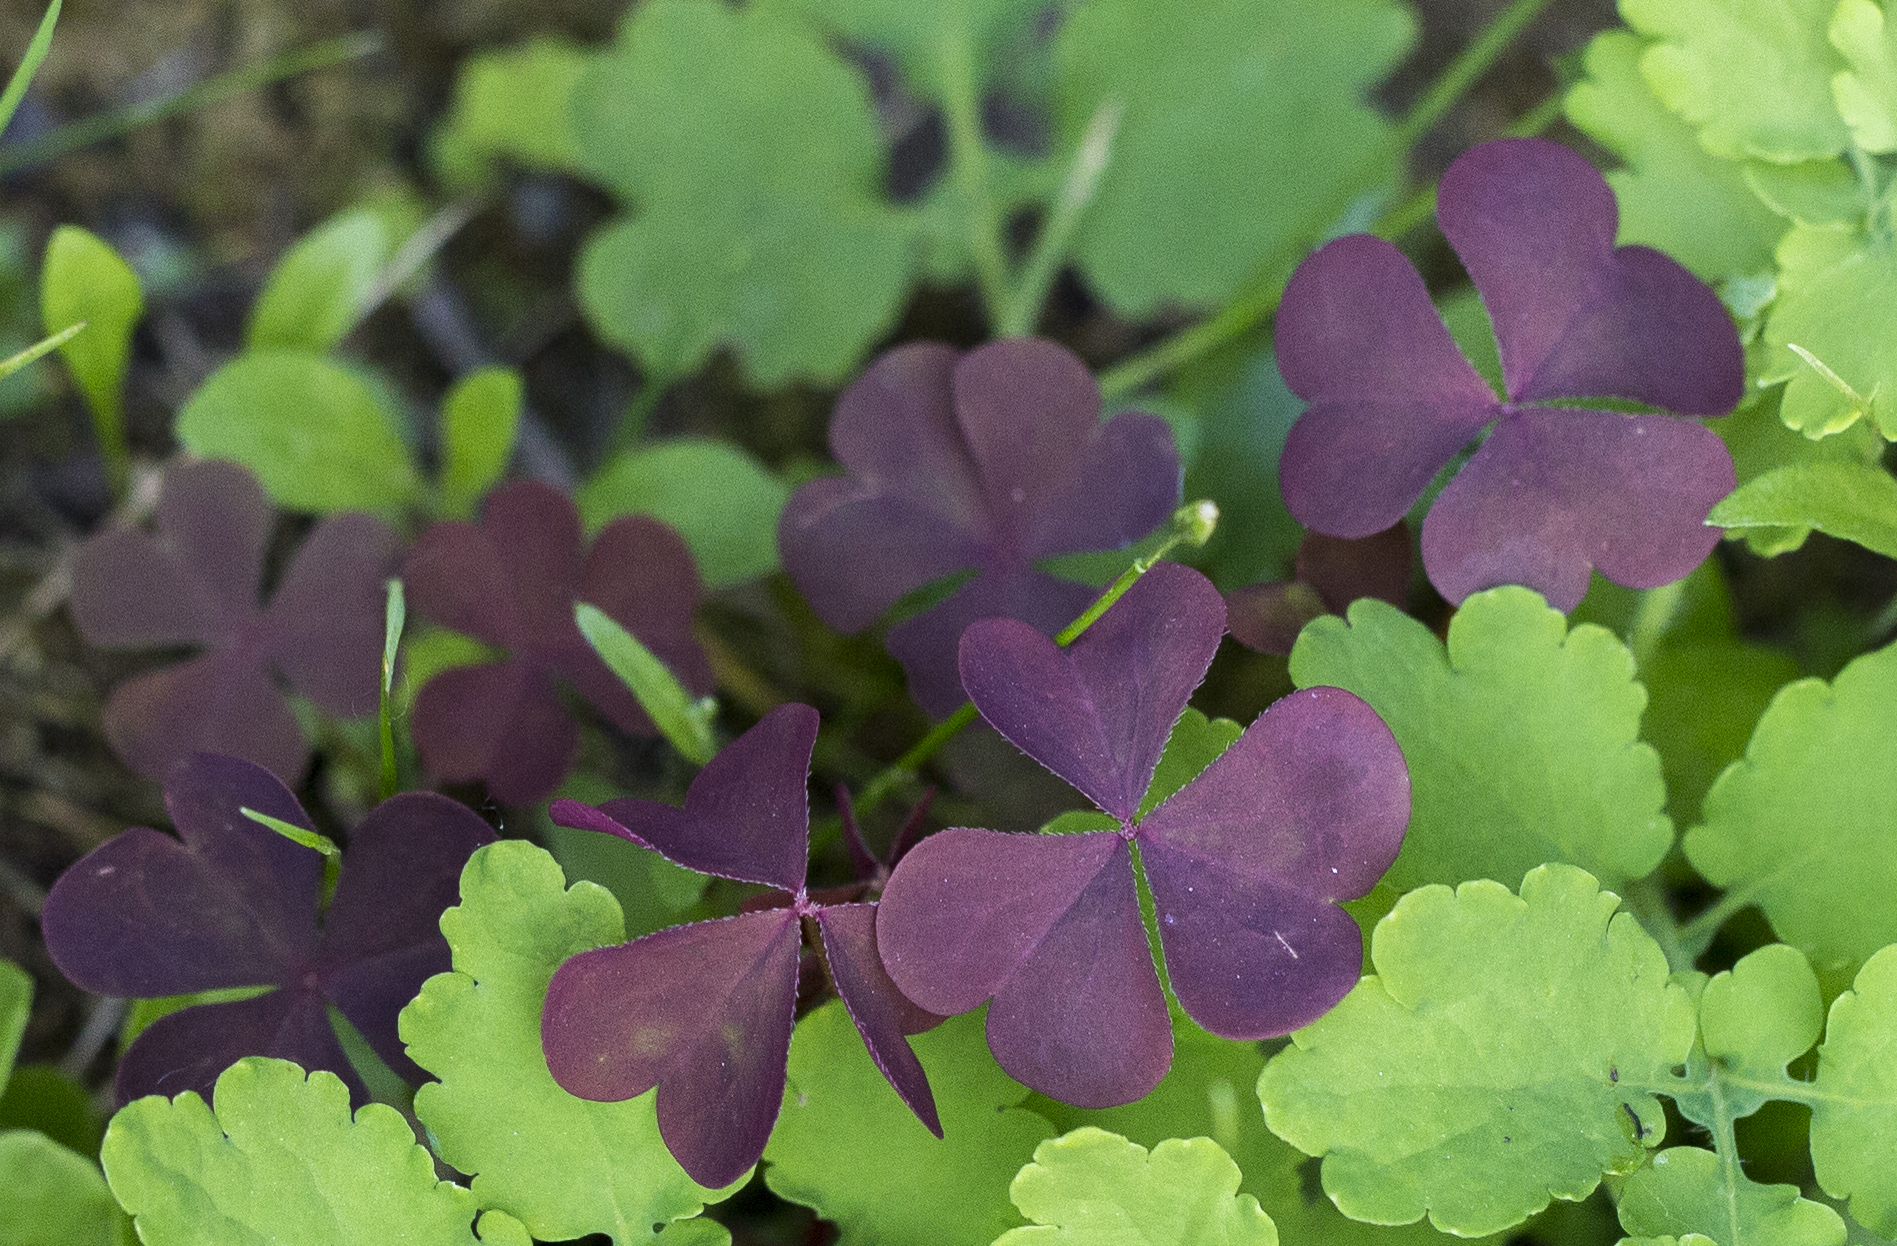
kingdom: Plantae
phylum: Tracheophyta
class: Magnoliopsida
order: Oxalidales
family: Oxalidaceae
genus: Oxalis
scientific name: Oxalis stricta
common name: Upright yellow-sorrel
